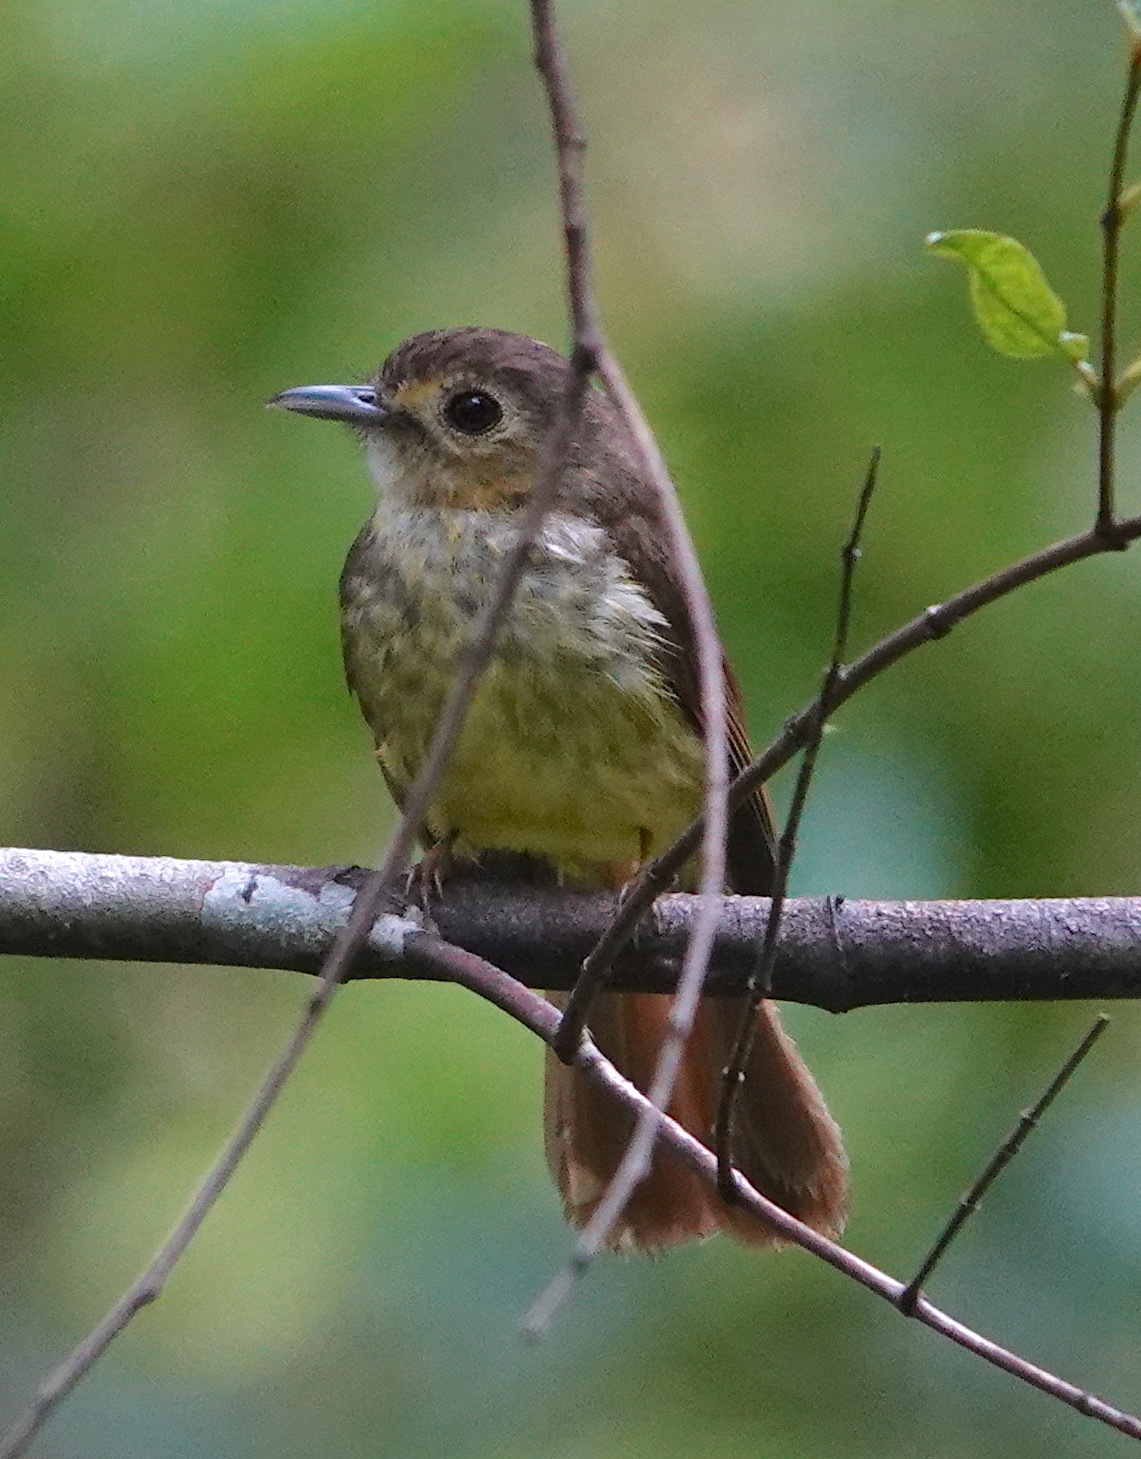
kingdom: Animalia
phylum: Chordata
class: Aves
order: Passeriformes
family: Pycnonotidae
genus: Tricholestes
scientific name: Tricholestes criniger
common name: Hairy-backed bulbul
